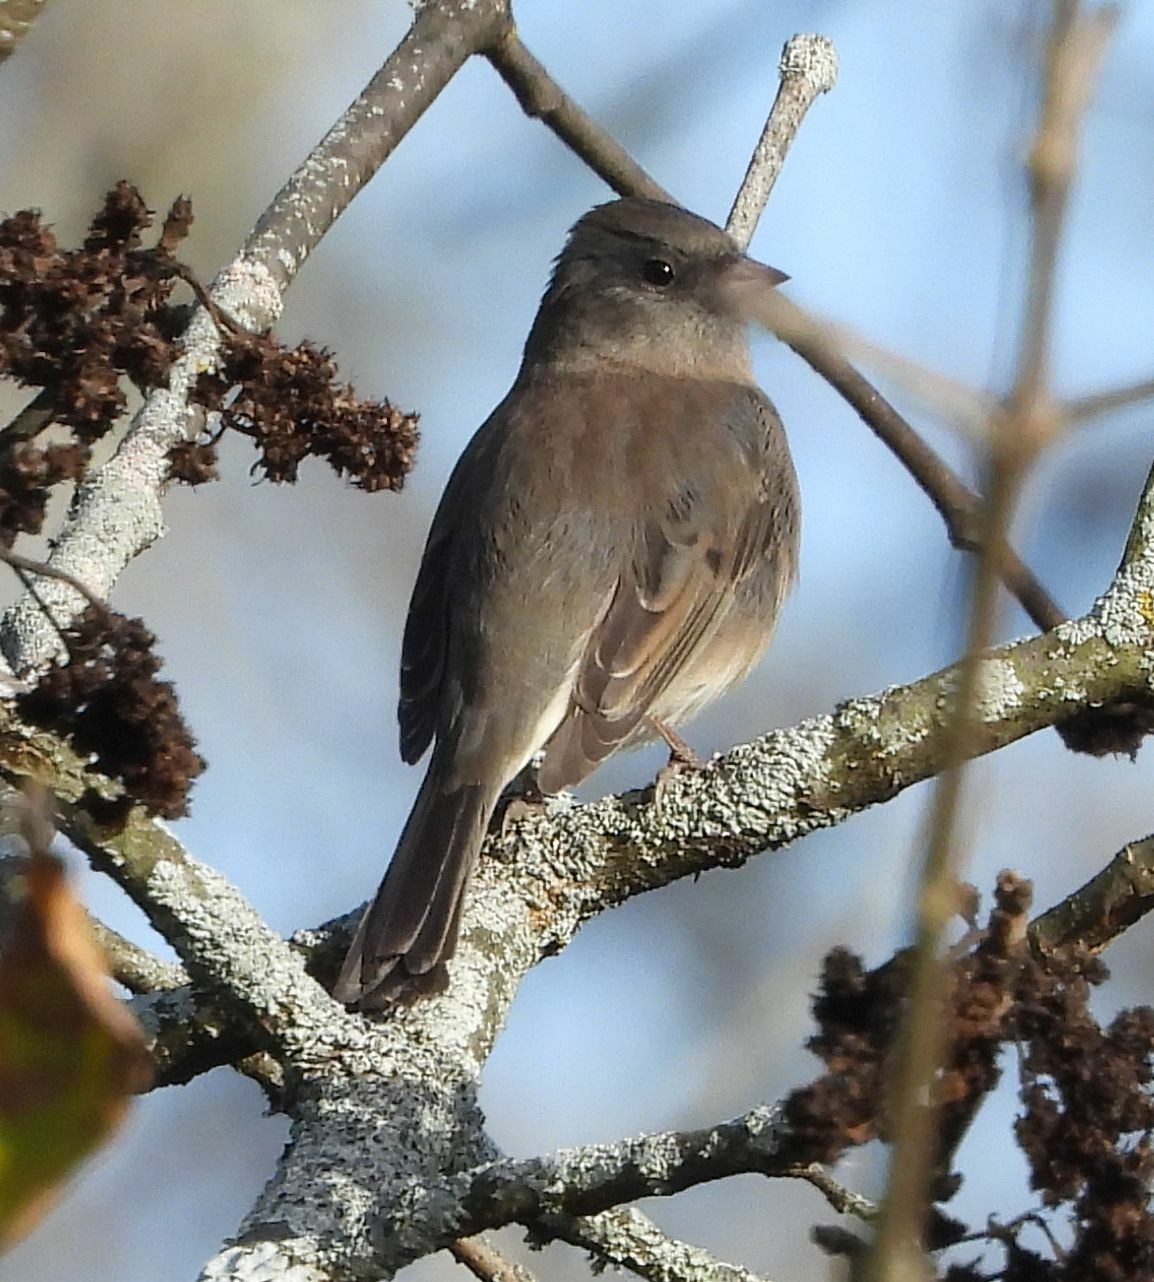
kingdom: Animalia
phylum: Chordata
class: Aves
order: Passeriformes
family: Passerellidae
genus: Junco
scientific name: Junco hyemalis
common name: Dark-eyed junco
